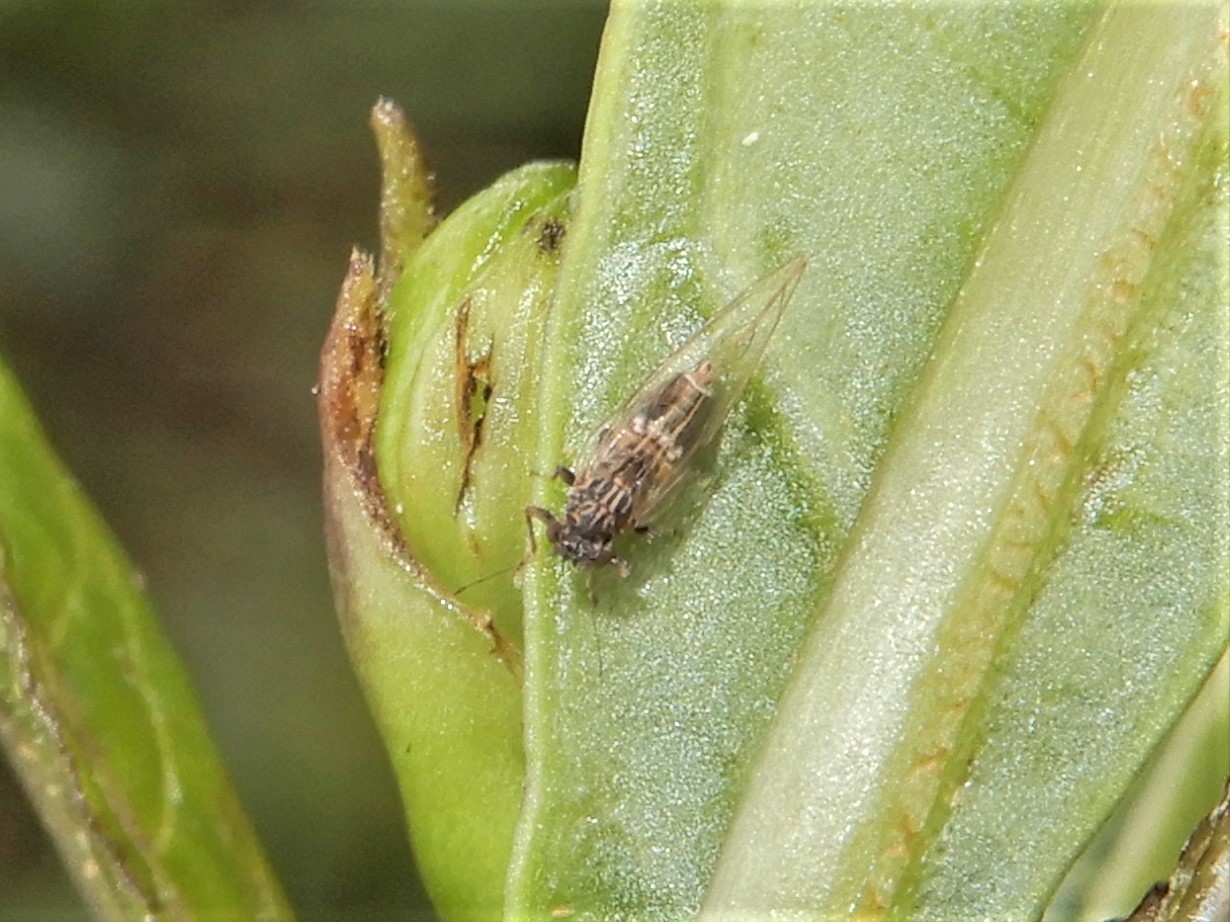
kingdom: Animalia
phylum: Arthropoda
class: Insecta
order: Hemiptera
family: Triozidae
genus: Bactericera
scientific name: Bactericera cockerelli
